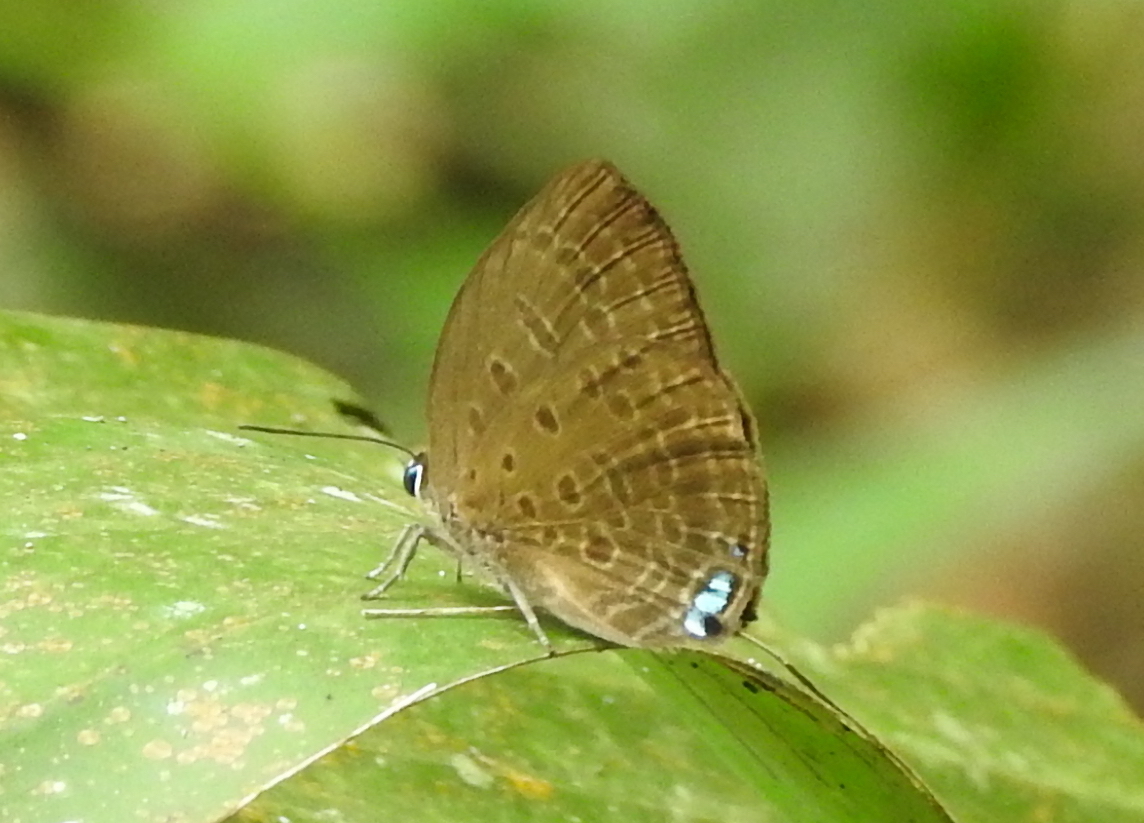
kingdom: Animalia
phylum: Arthropoda
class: Insecta
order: Lepidoptera
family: Lycaenidae
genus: Arhopala
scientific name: Arhopala amphimuta
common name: Broad yellow oakblue
